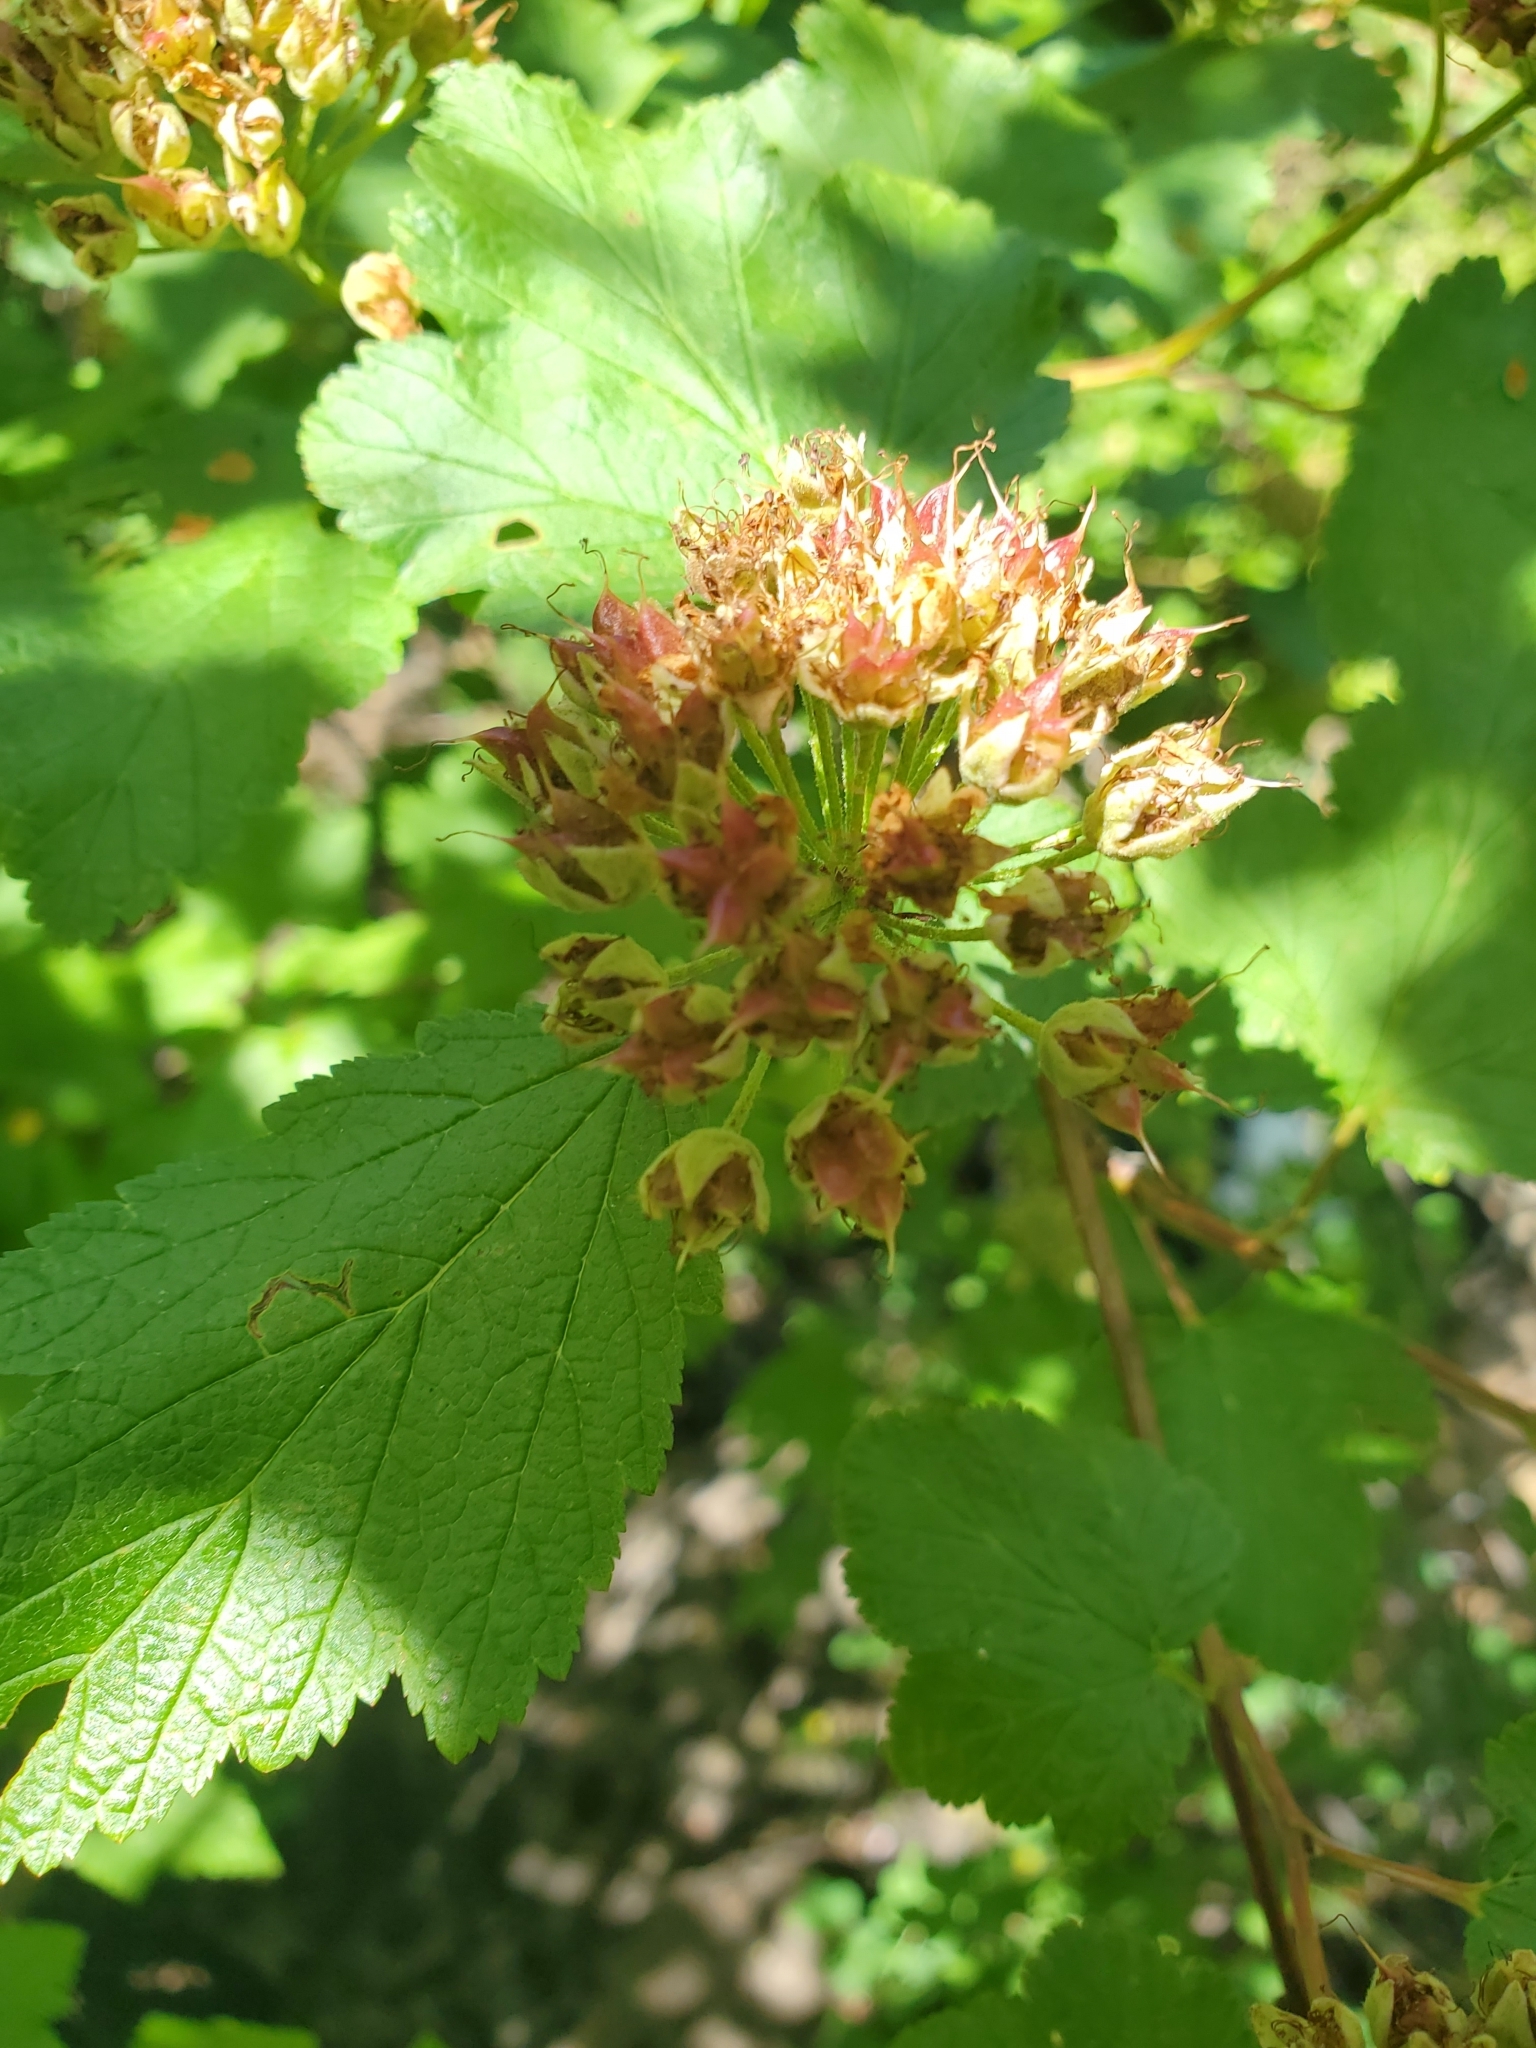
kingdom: Plantae
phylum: Tracheophyta
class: Magnoliopsida
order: Rosales
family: Rosaceae
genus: Physocarpus
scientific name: Physocarpus capitatus
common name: Pacific ninebark
